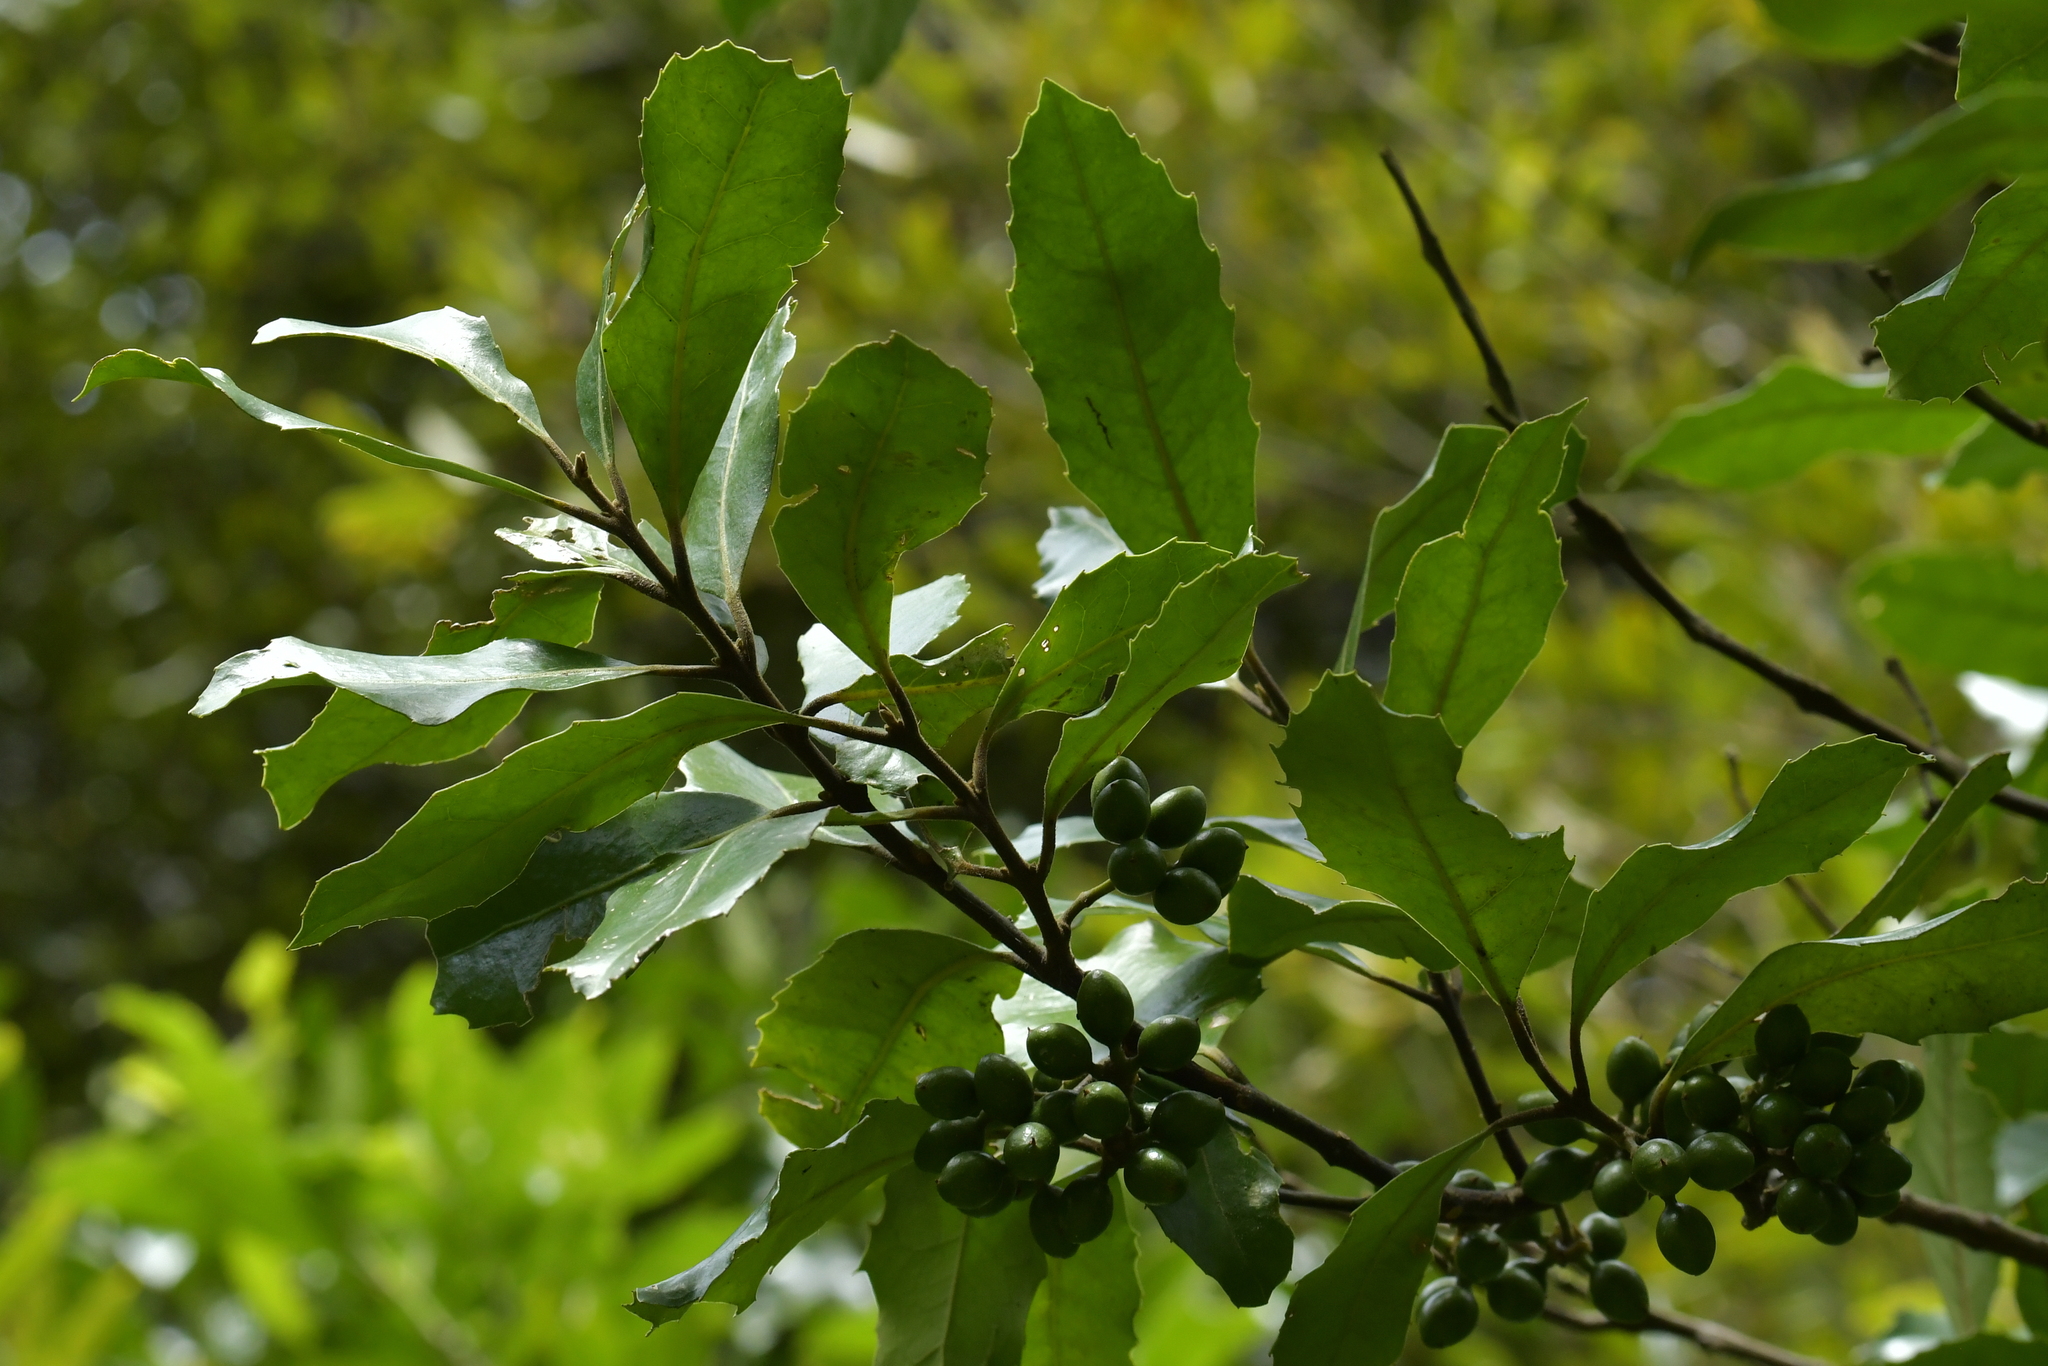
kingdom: Plantae
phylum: Tracheophyta
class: Magnoliopsida
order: Laurales
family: Monimiaceae
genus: Hedycarya
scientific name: Hedycarya arborea
